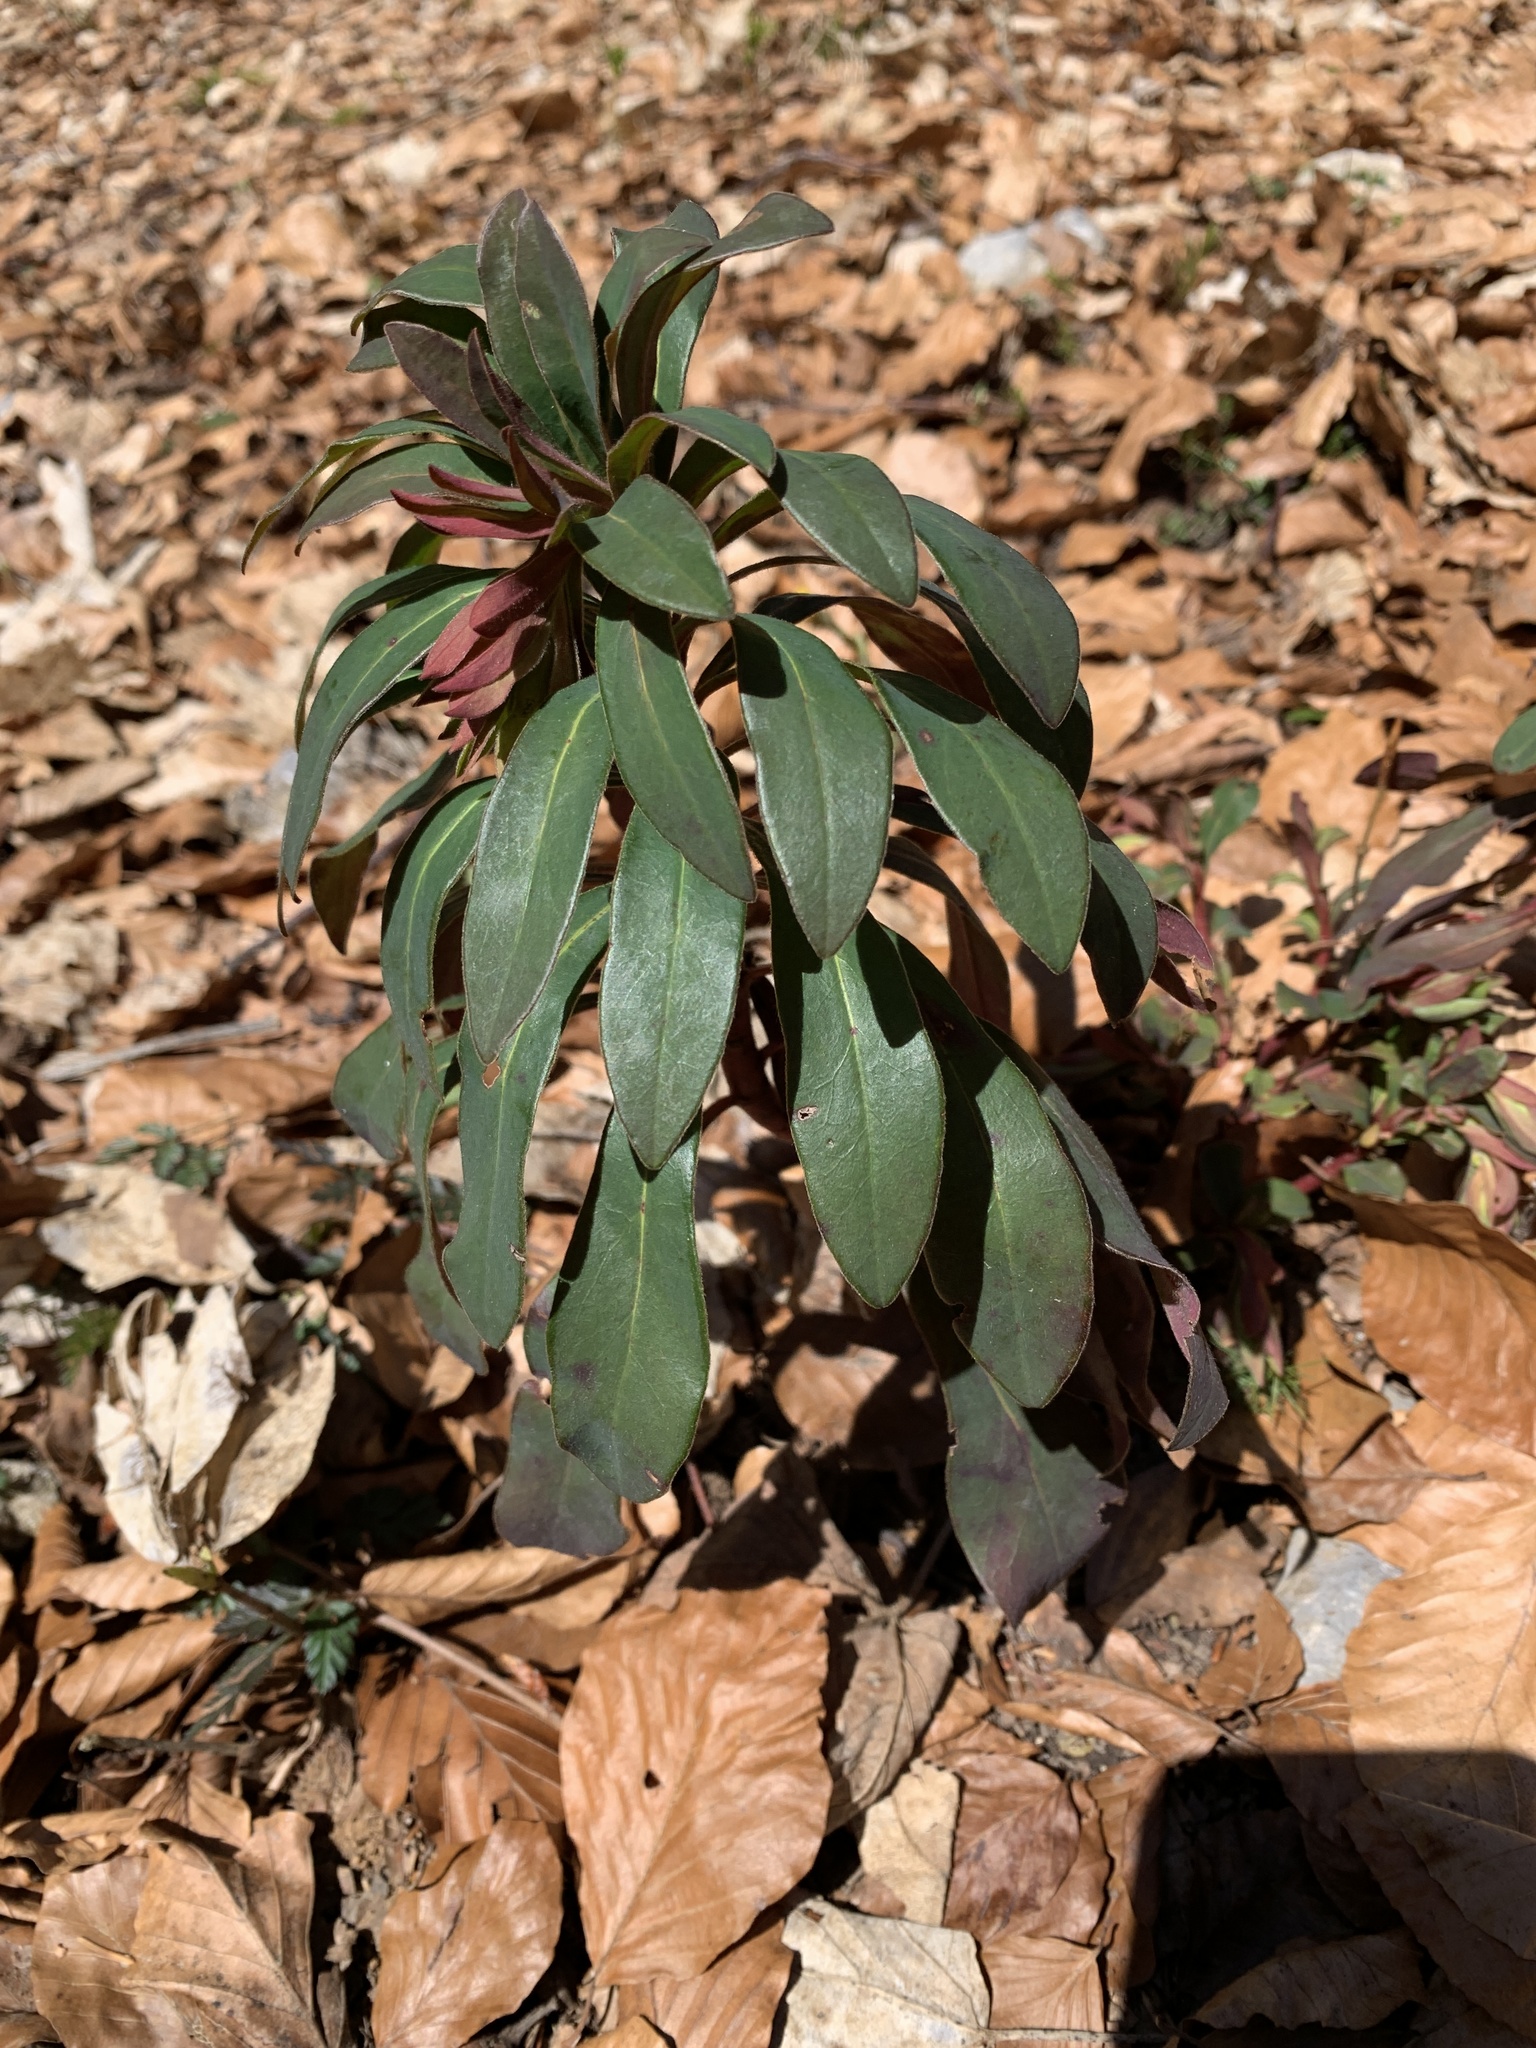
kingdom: Plantae
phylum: Tracheophyta
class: Magnoliopsida
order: Malpighiales
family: Euphorbiaceae
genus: Euphorbia
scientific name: Euphorbia amygdaloides
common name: Wood spurge
